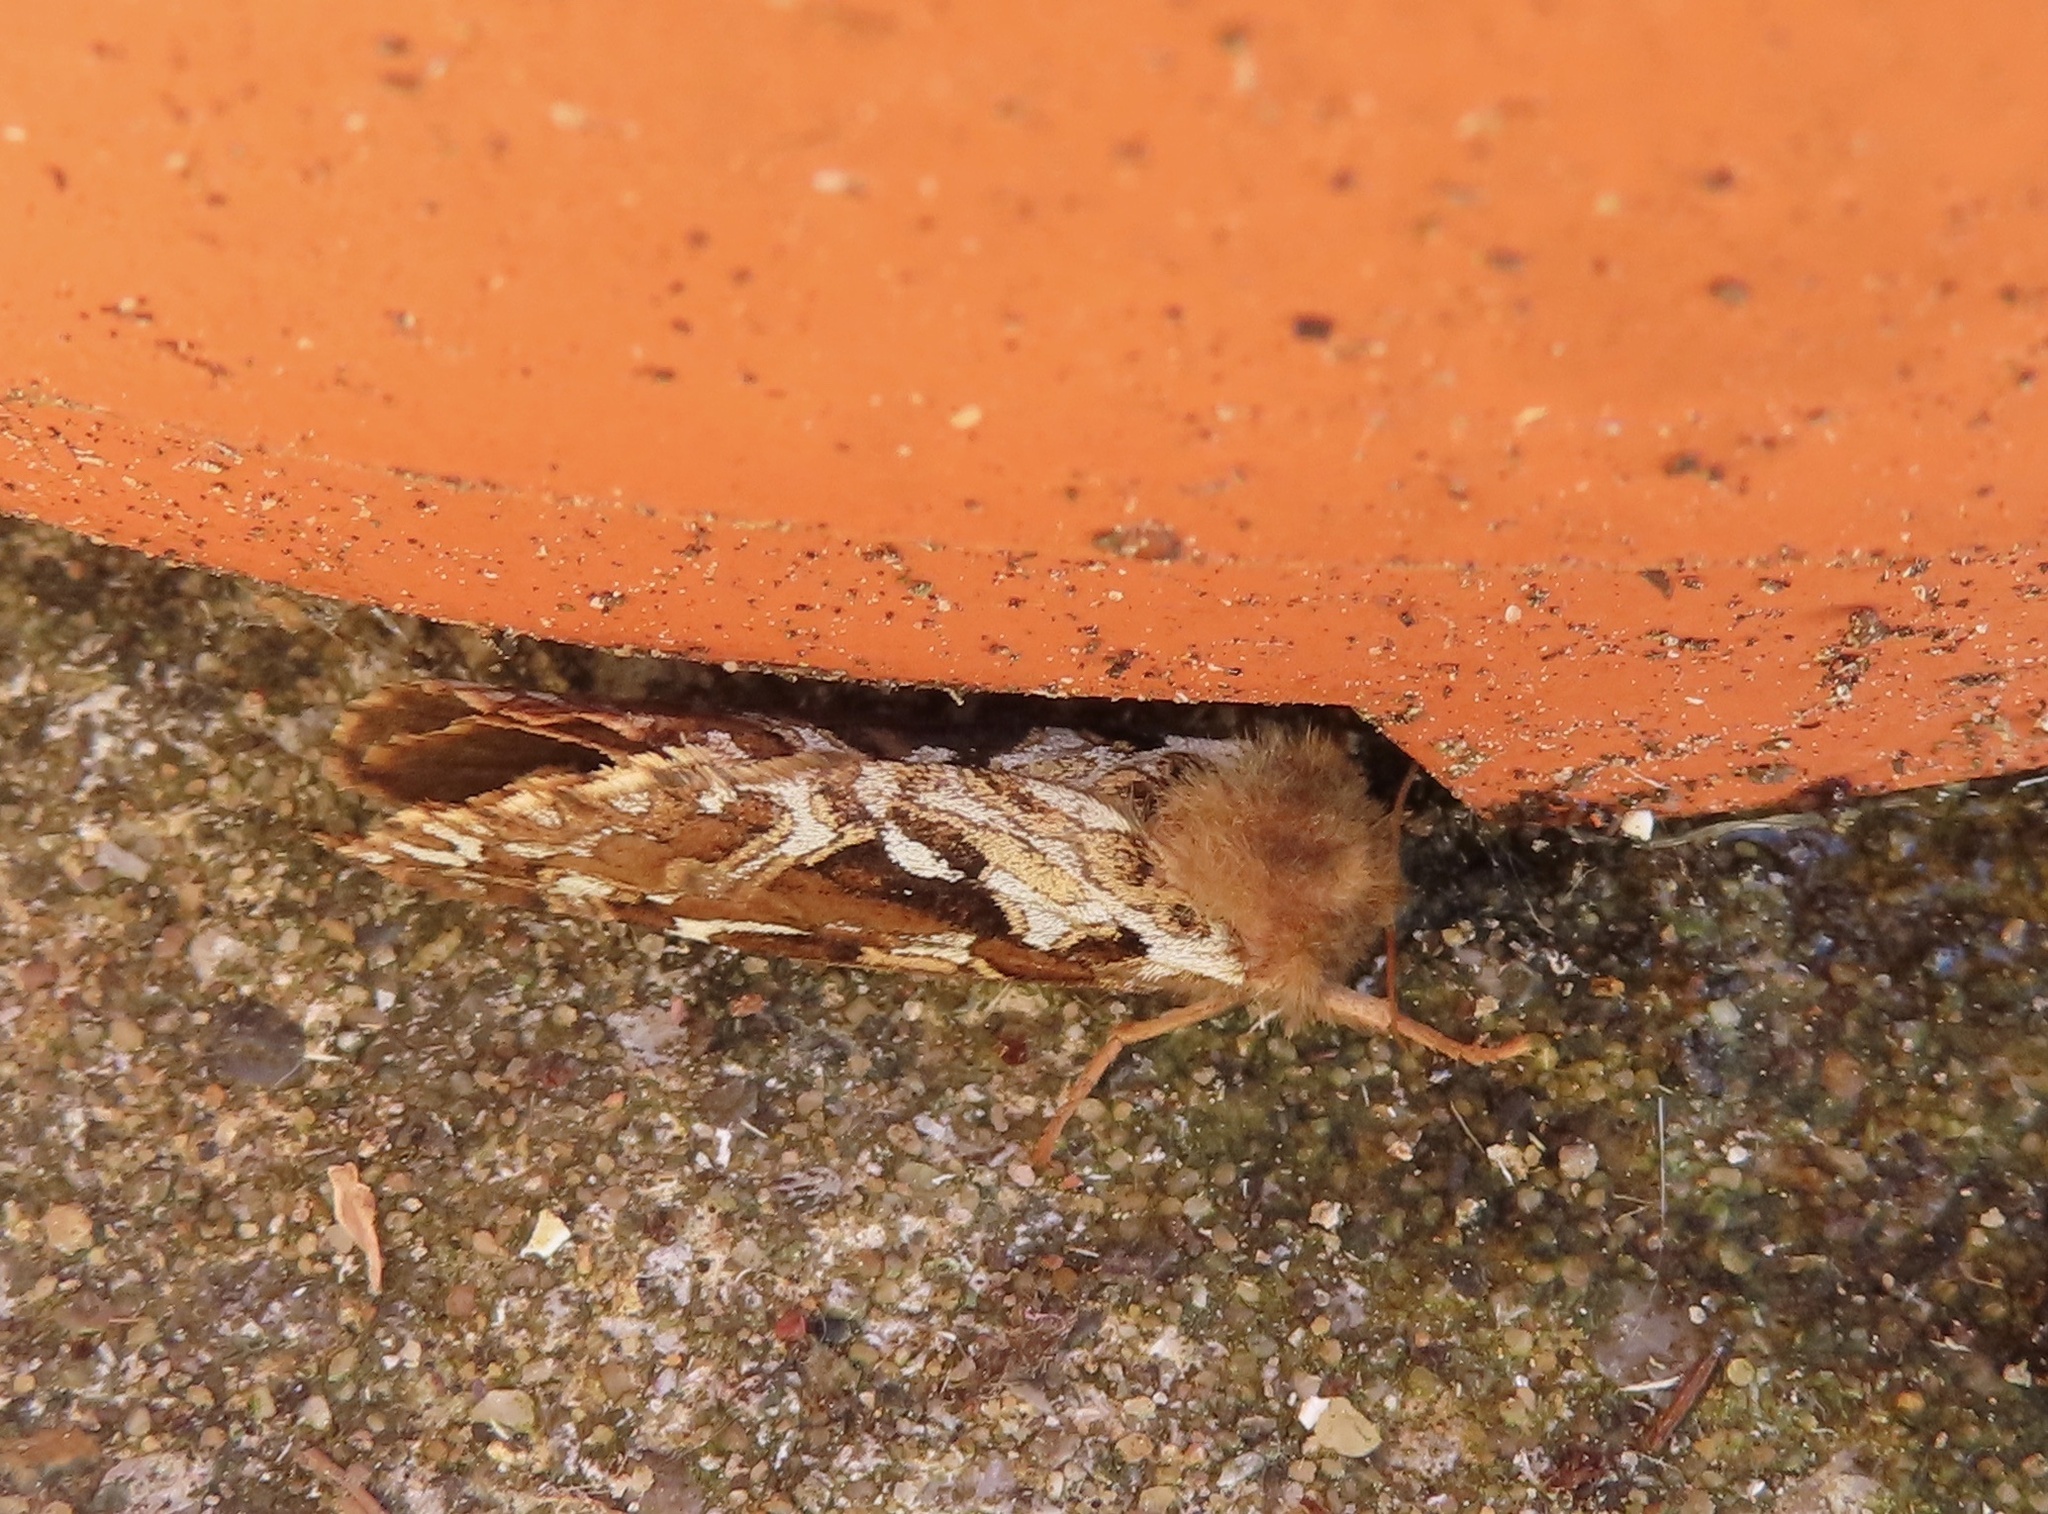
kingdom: Animalia
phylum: Arthropoda
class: Insecta
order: Lepidoptera
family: Hepialidae
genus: Korscheltellus
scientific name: Korscheltellus fusconebulosus
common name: Map-winged swift
